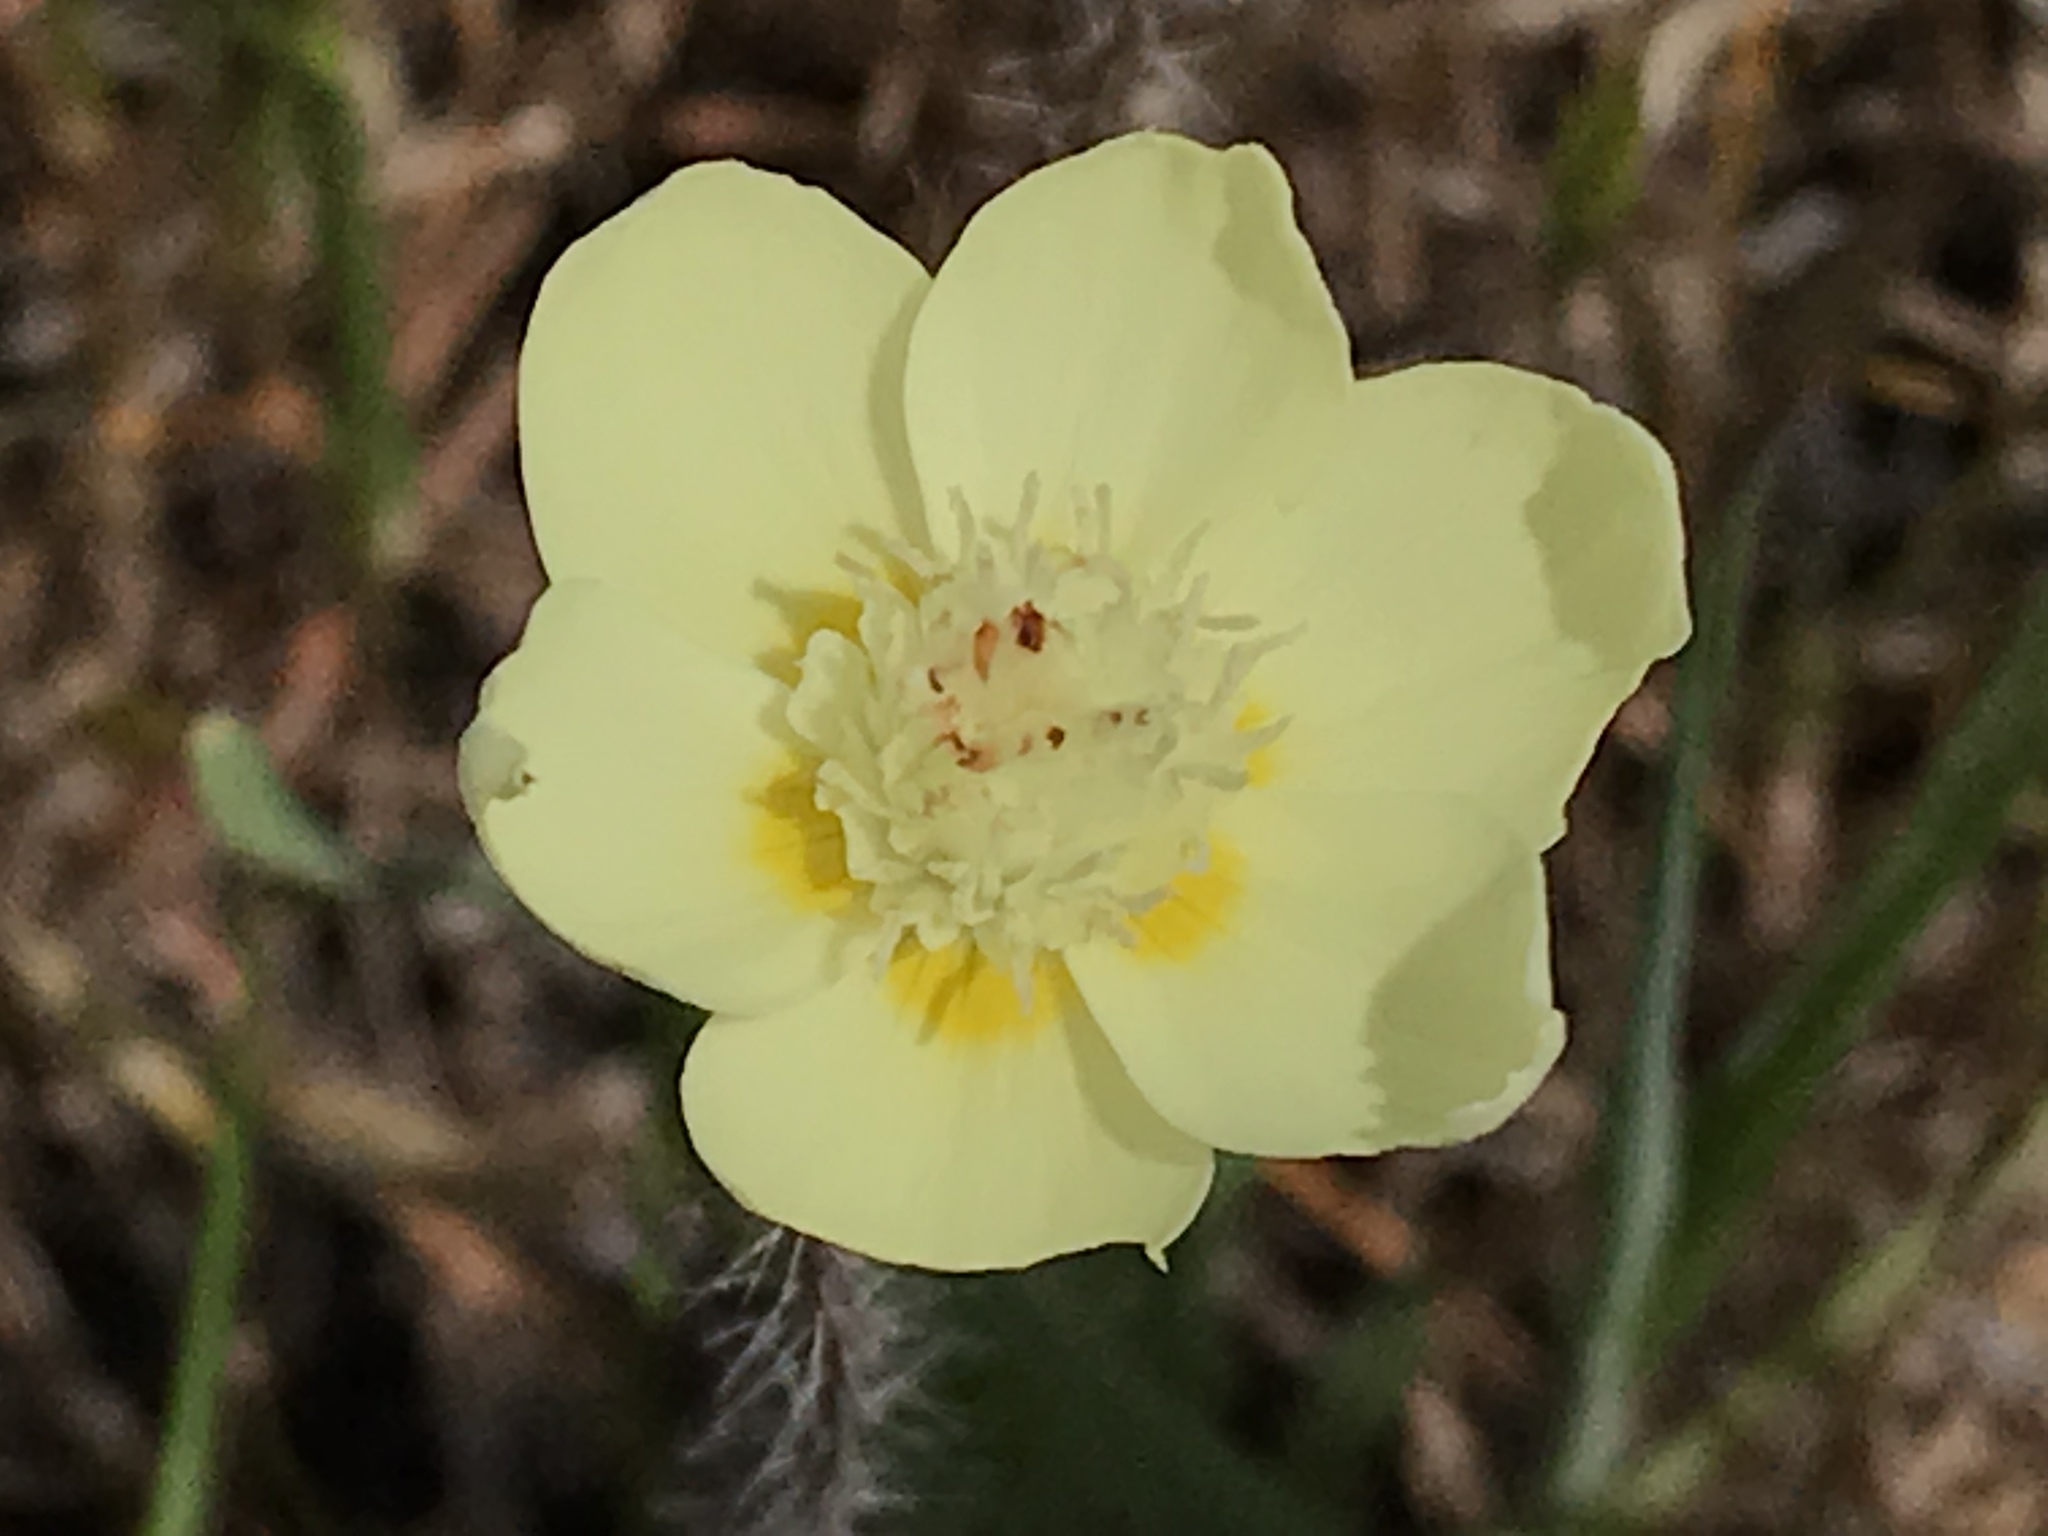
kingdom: Plantae
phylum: Tracheophyta
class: Magnoliopsida
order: Ranunculales
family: Papaveraceae
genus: Platystemon
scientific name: Platystemon californicus
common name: Cream-cups
